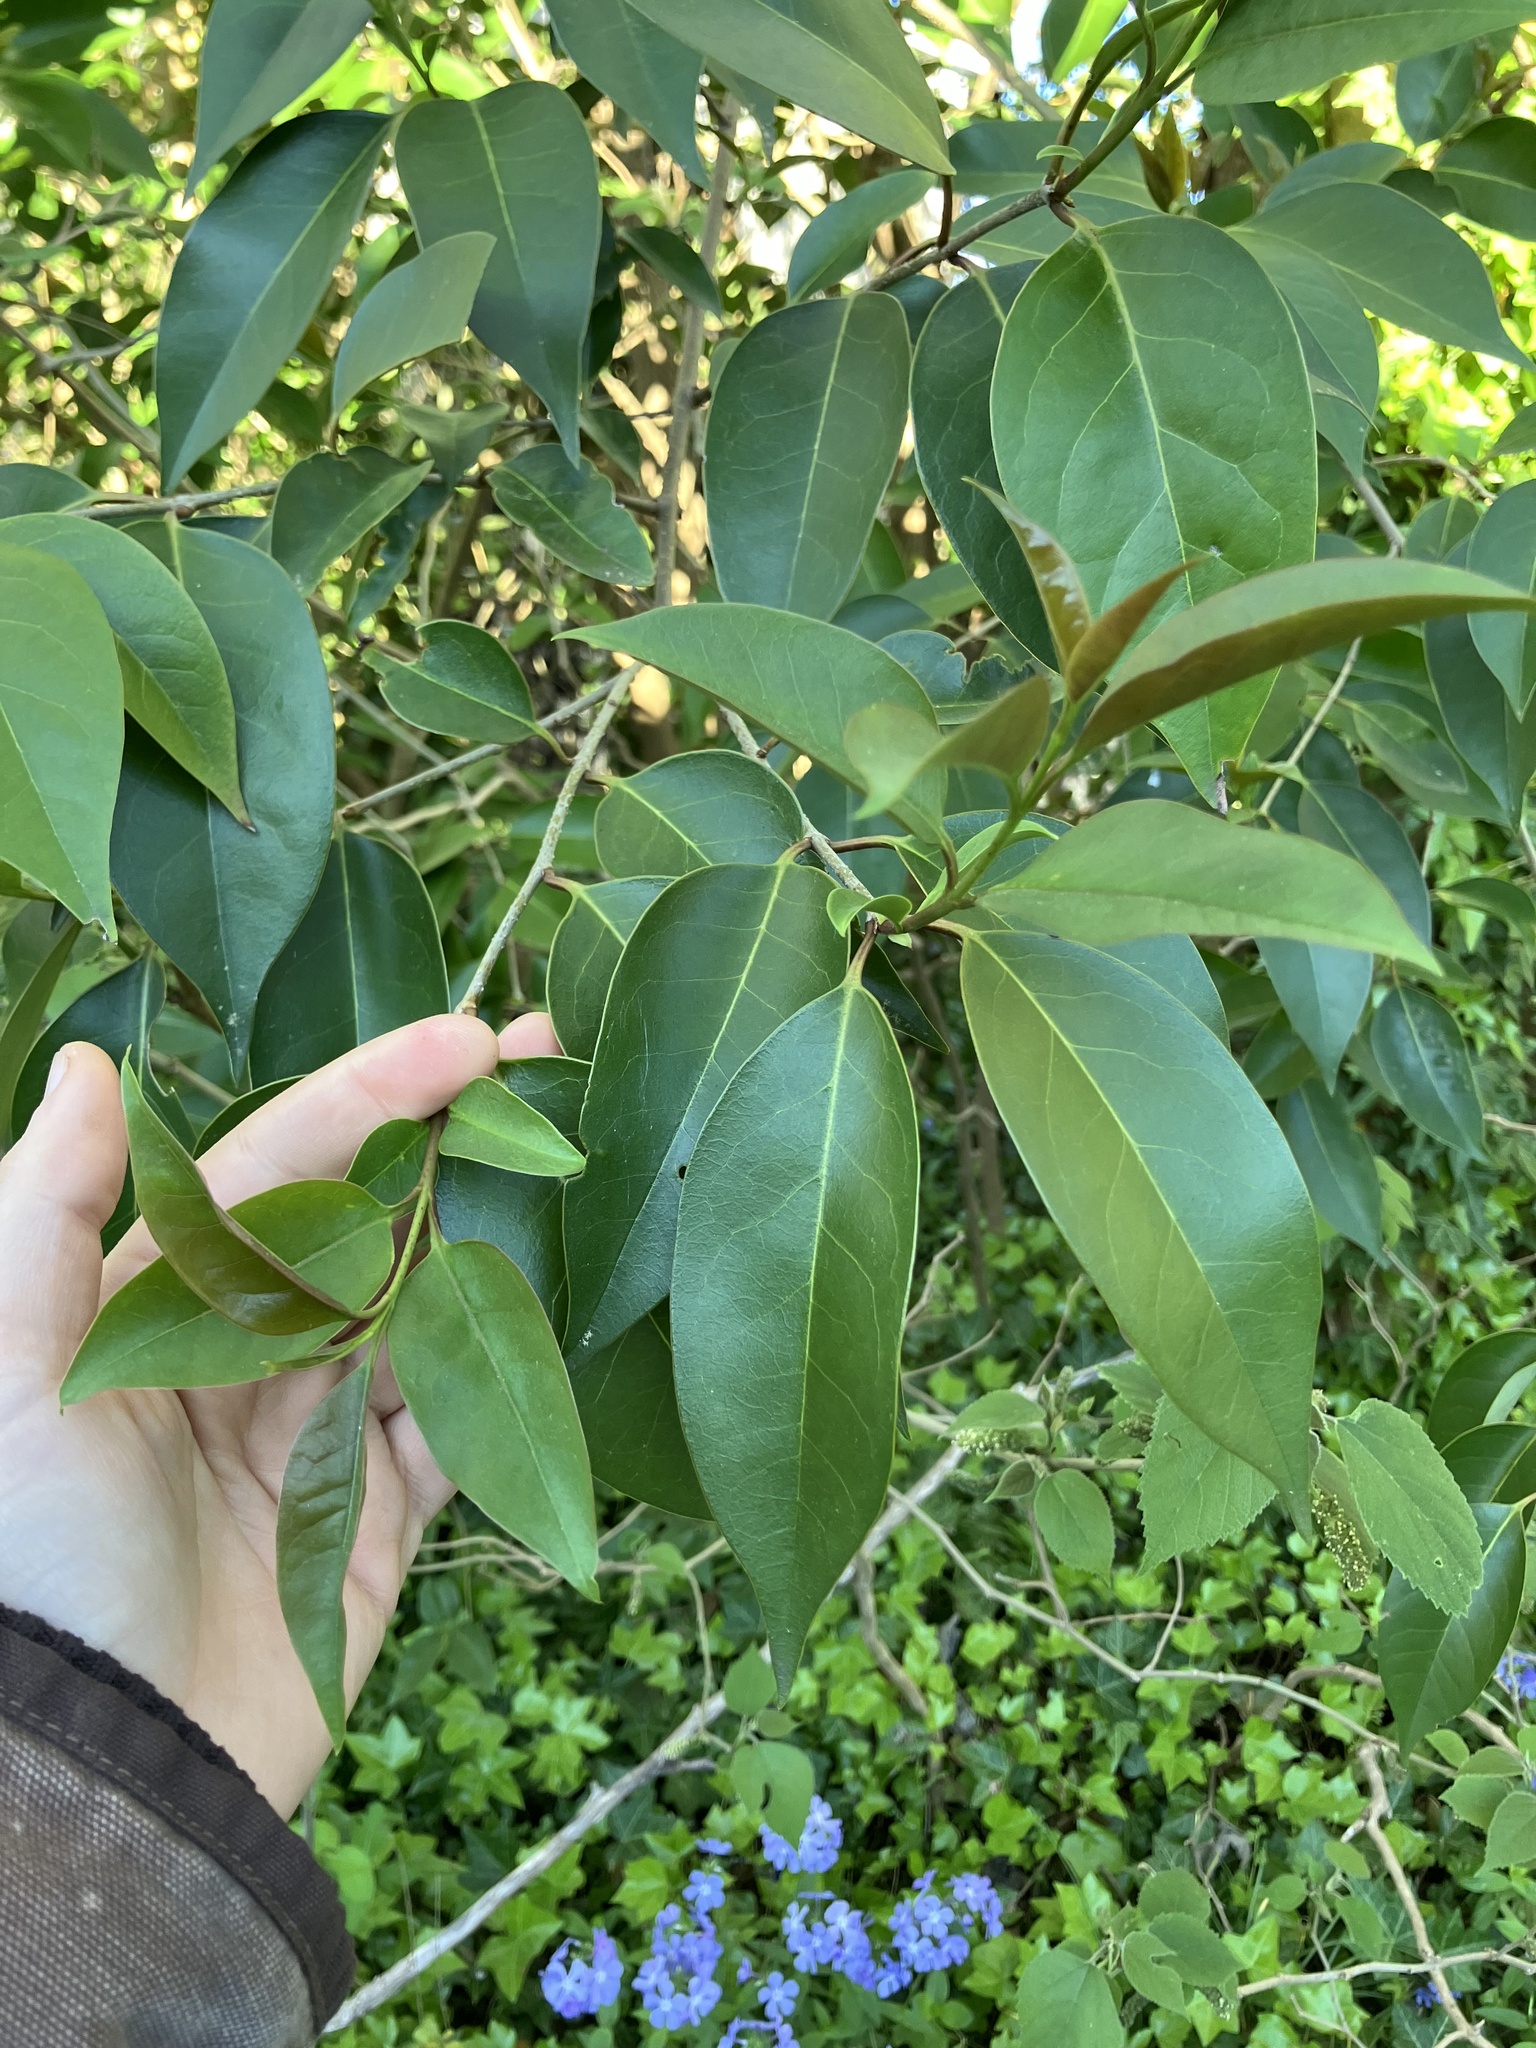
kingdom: Plantae
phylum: Tracheophyta
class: Magnoliopsida
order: Lamiales
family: Oleaceae
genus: Ligustrum
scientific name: Ligustrum lucidum
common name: Glossy privet
